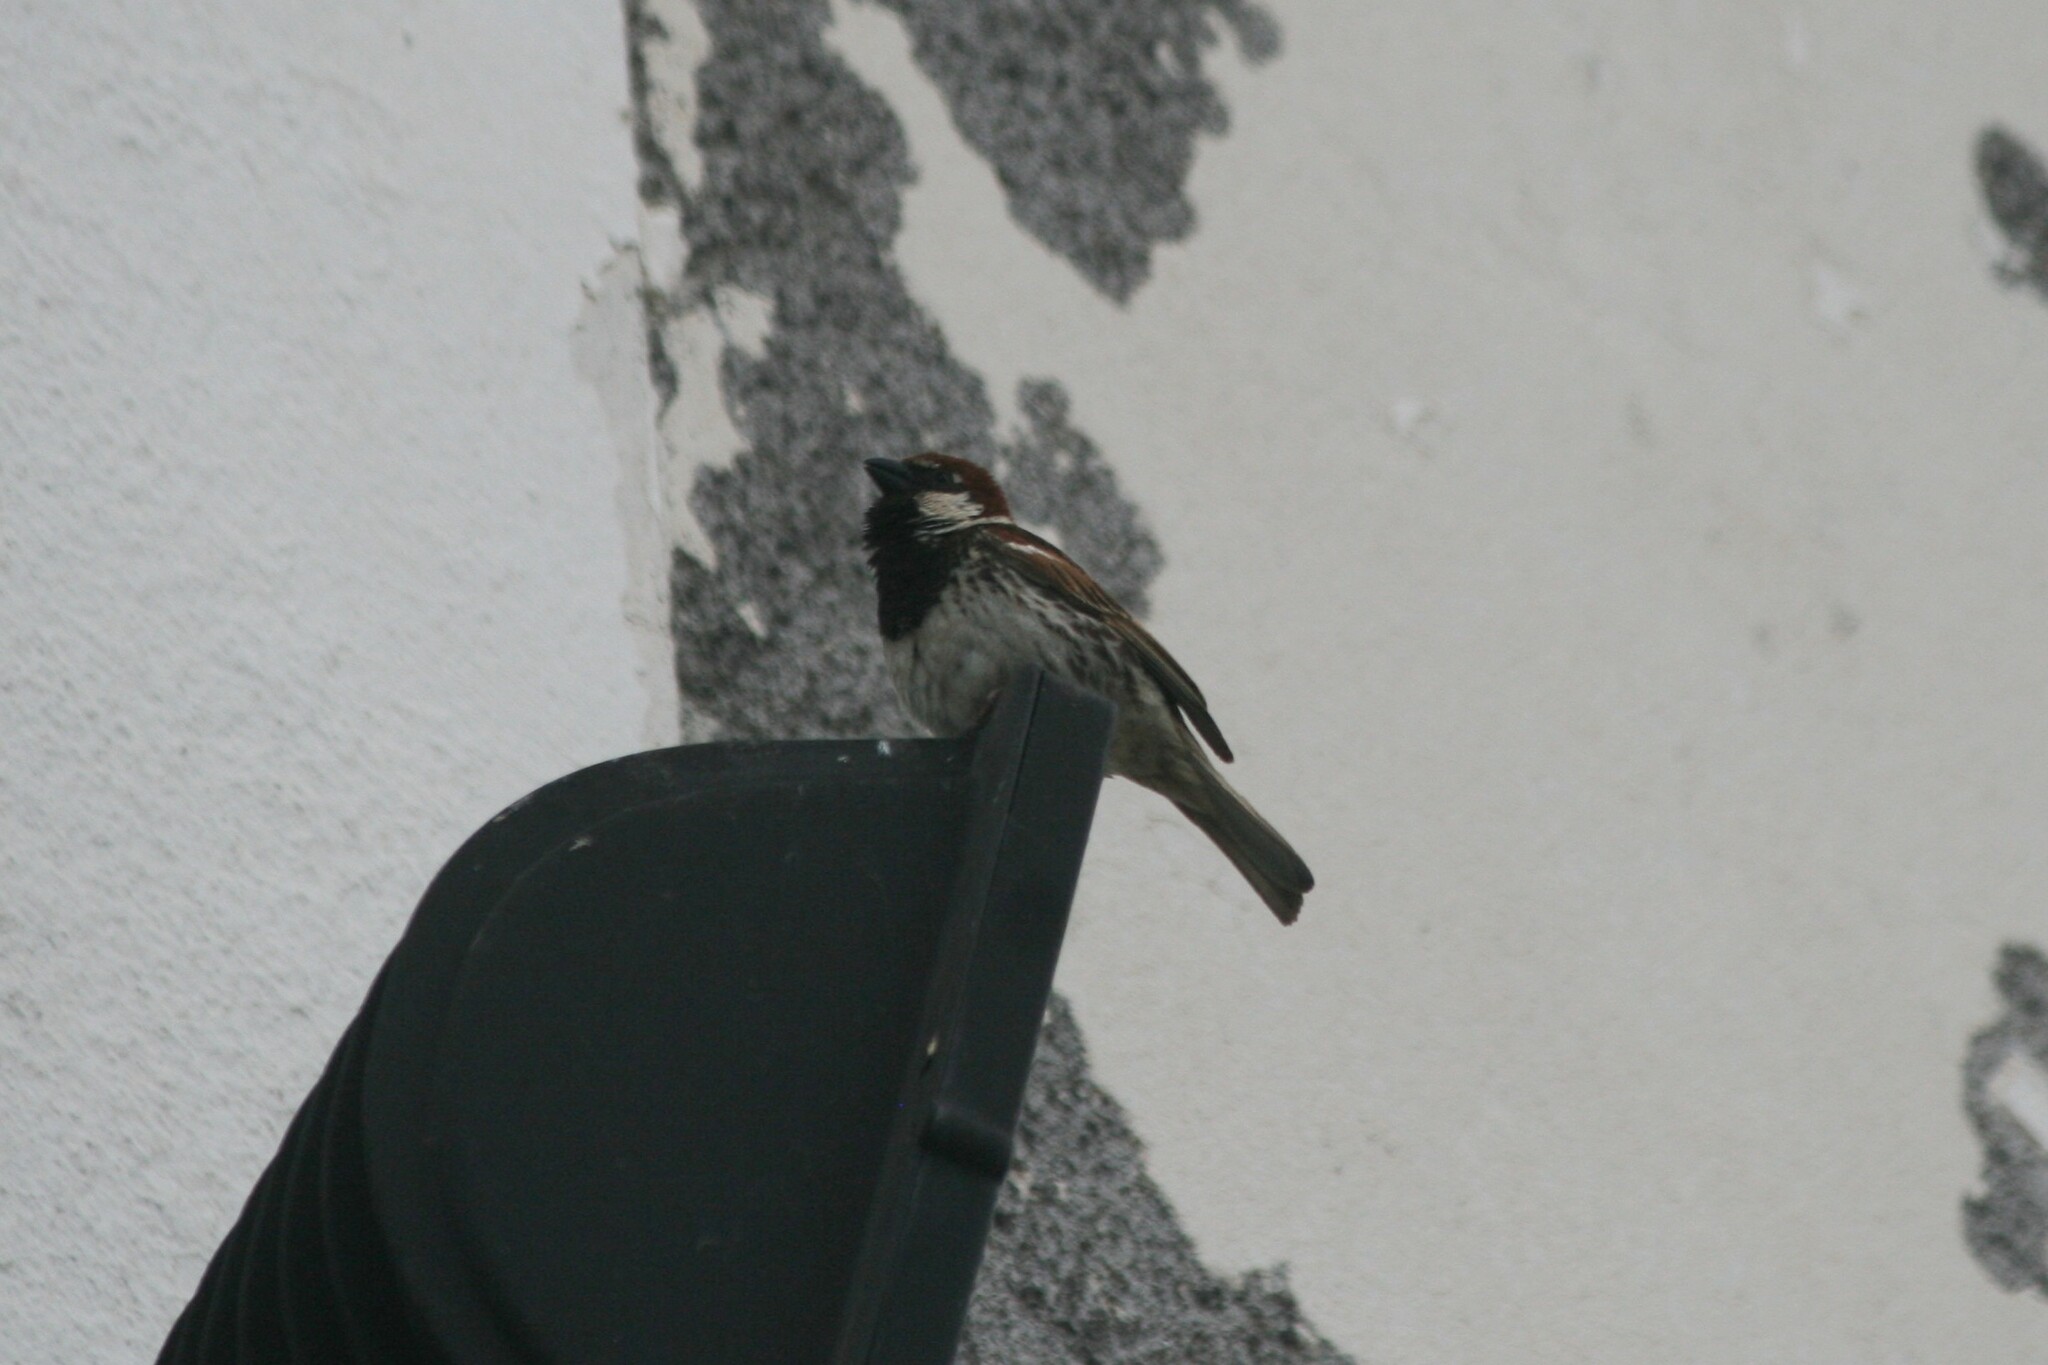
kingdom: Animalia
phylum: Chordata
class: Aves
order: Passeriformes
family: Passeridae
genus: Passer
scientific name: Passer hispaniolensis
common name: Spanish sparrow
